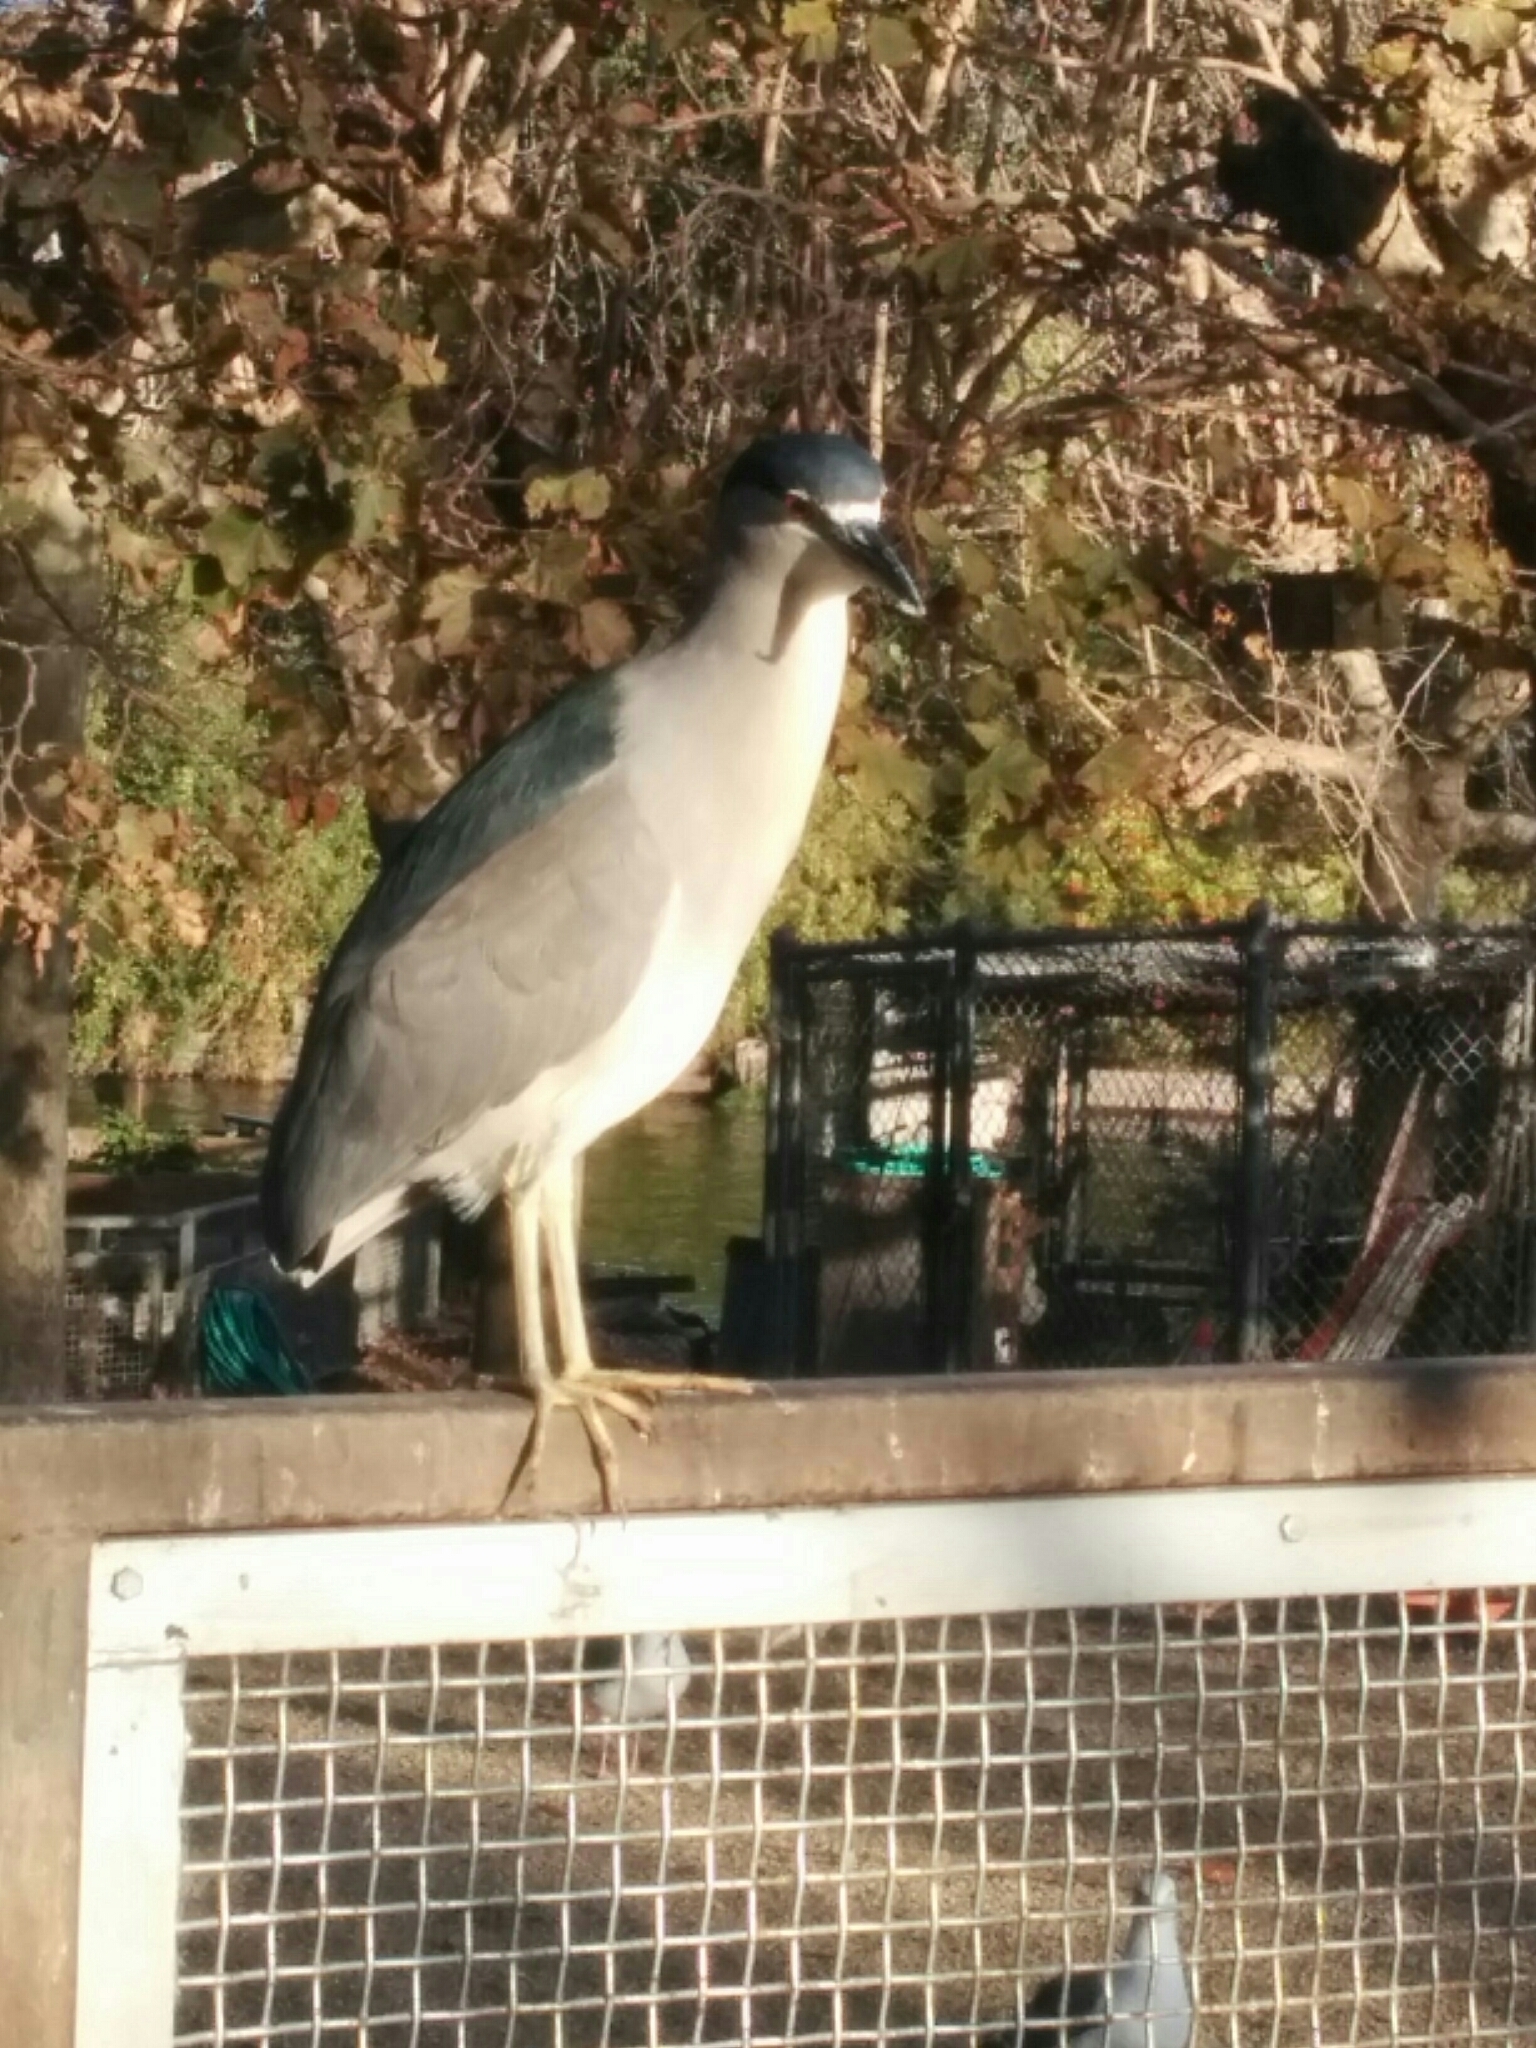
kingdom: Animalia
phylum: Chordata
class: Aves
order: Pelecaniformes
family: Ardeidae
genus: Nycticorax
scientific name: Nycticorax nycticorax
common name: Black-crowned night heron
